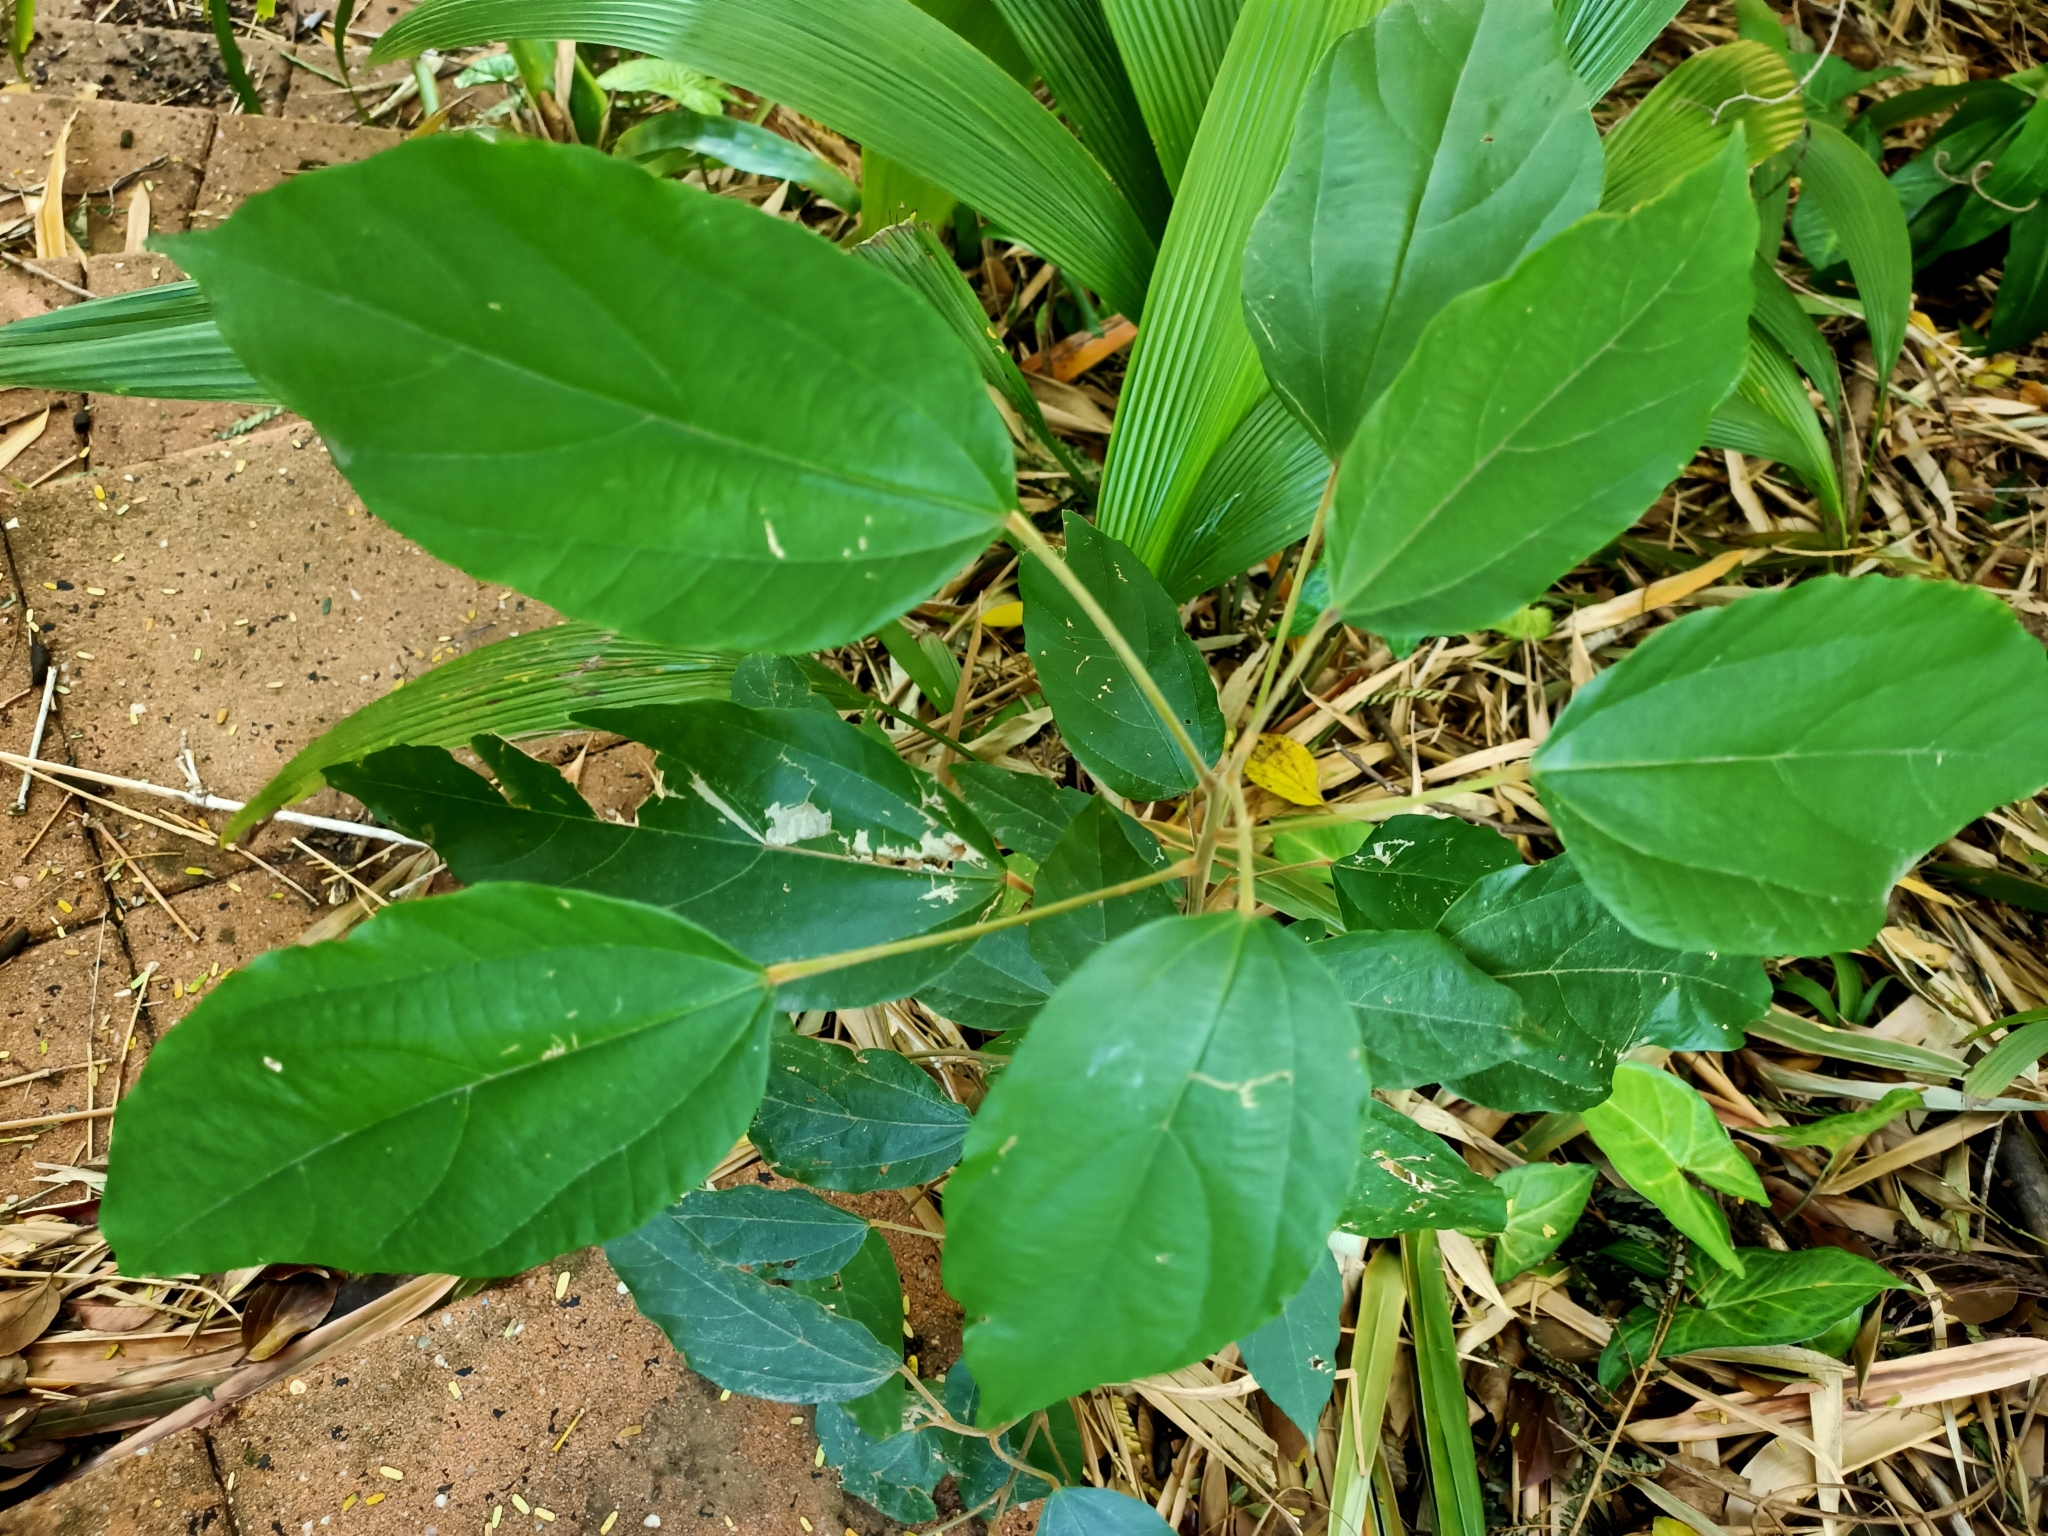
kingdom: Plantae
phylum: Tracheophyta
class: Magnoliopsida
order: Malpighiales
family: Euphorbiaceae
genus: Mallotus
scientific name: Mallotus philippensis
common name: Kamala tree
